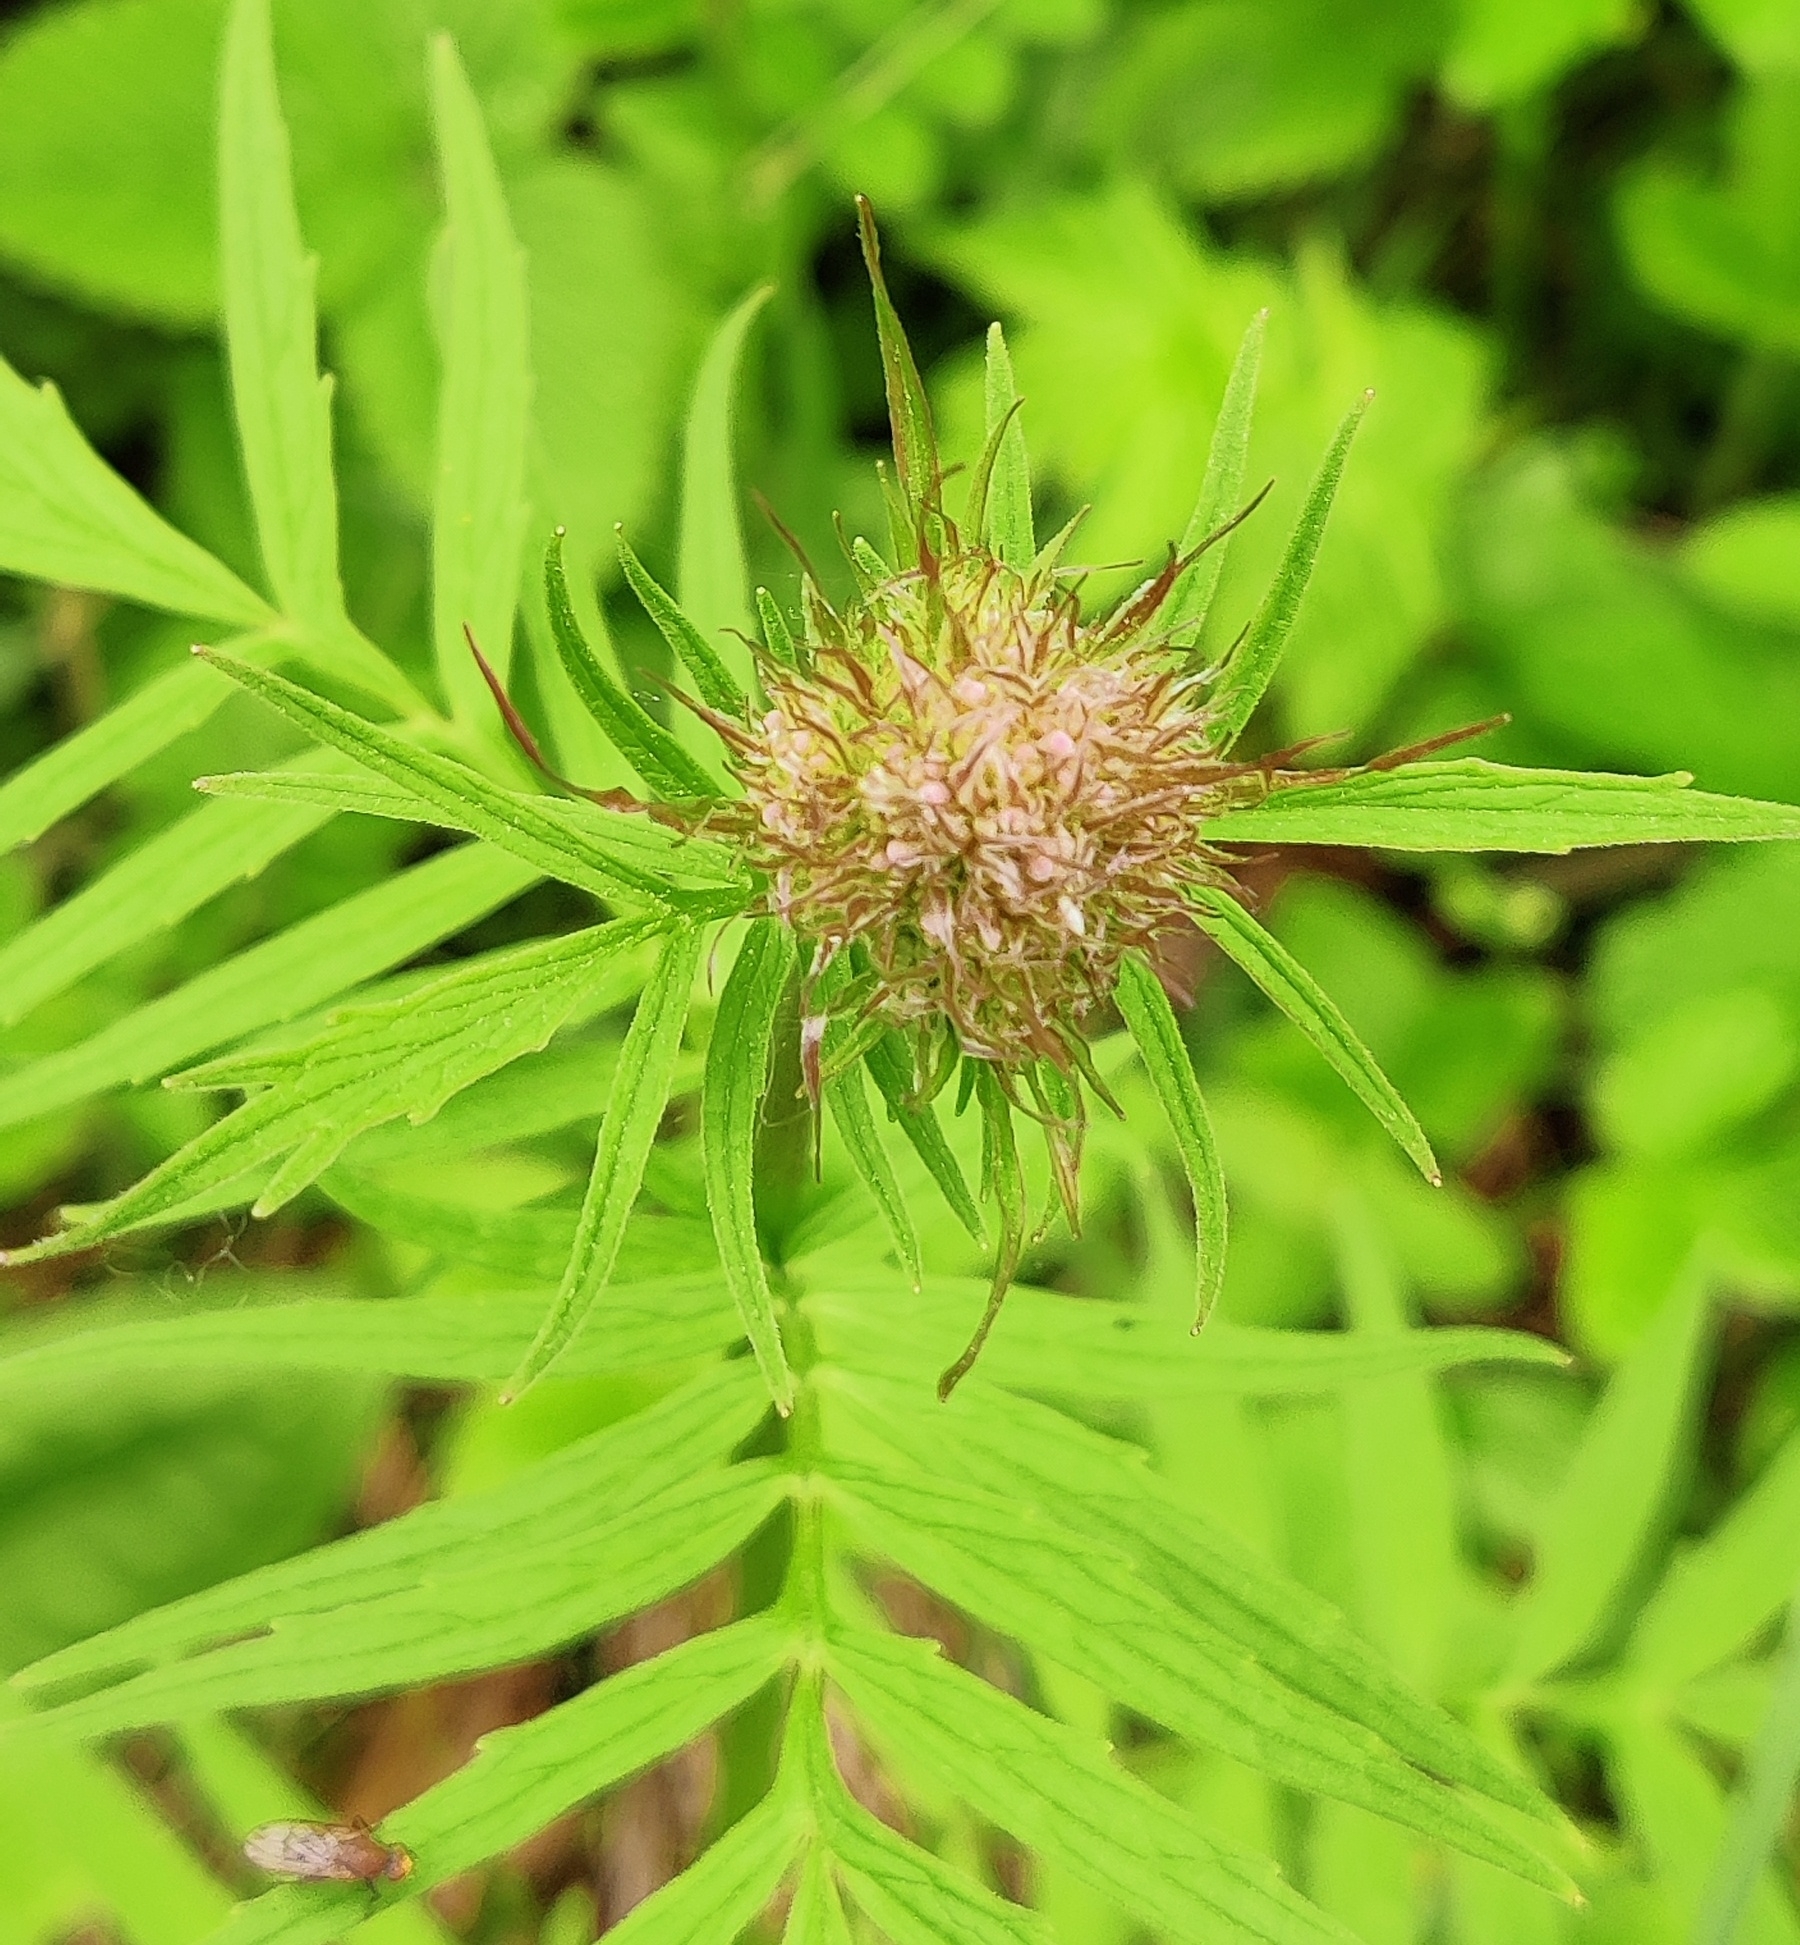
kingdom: Plantae
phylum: Tracheophyta
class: Magnoliopsida
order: Dipsacales
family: Caprifoliaceae
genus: Valeriana
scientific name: Valeriana sambucifolia
